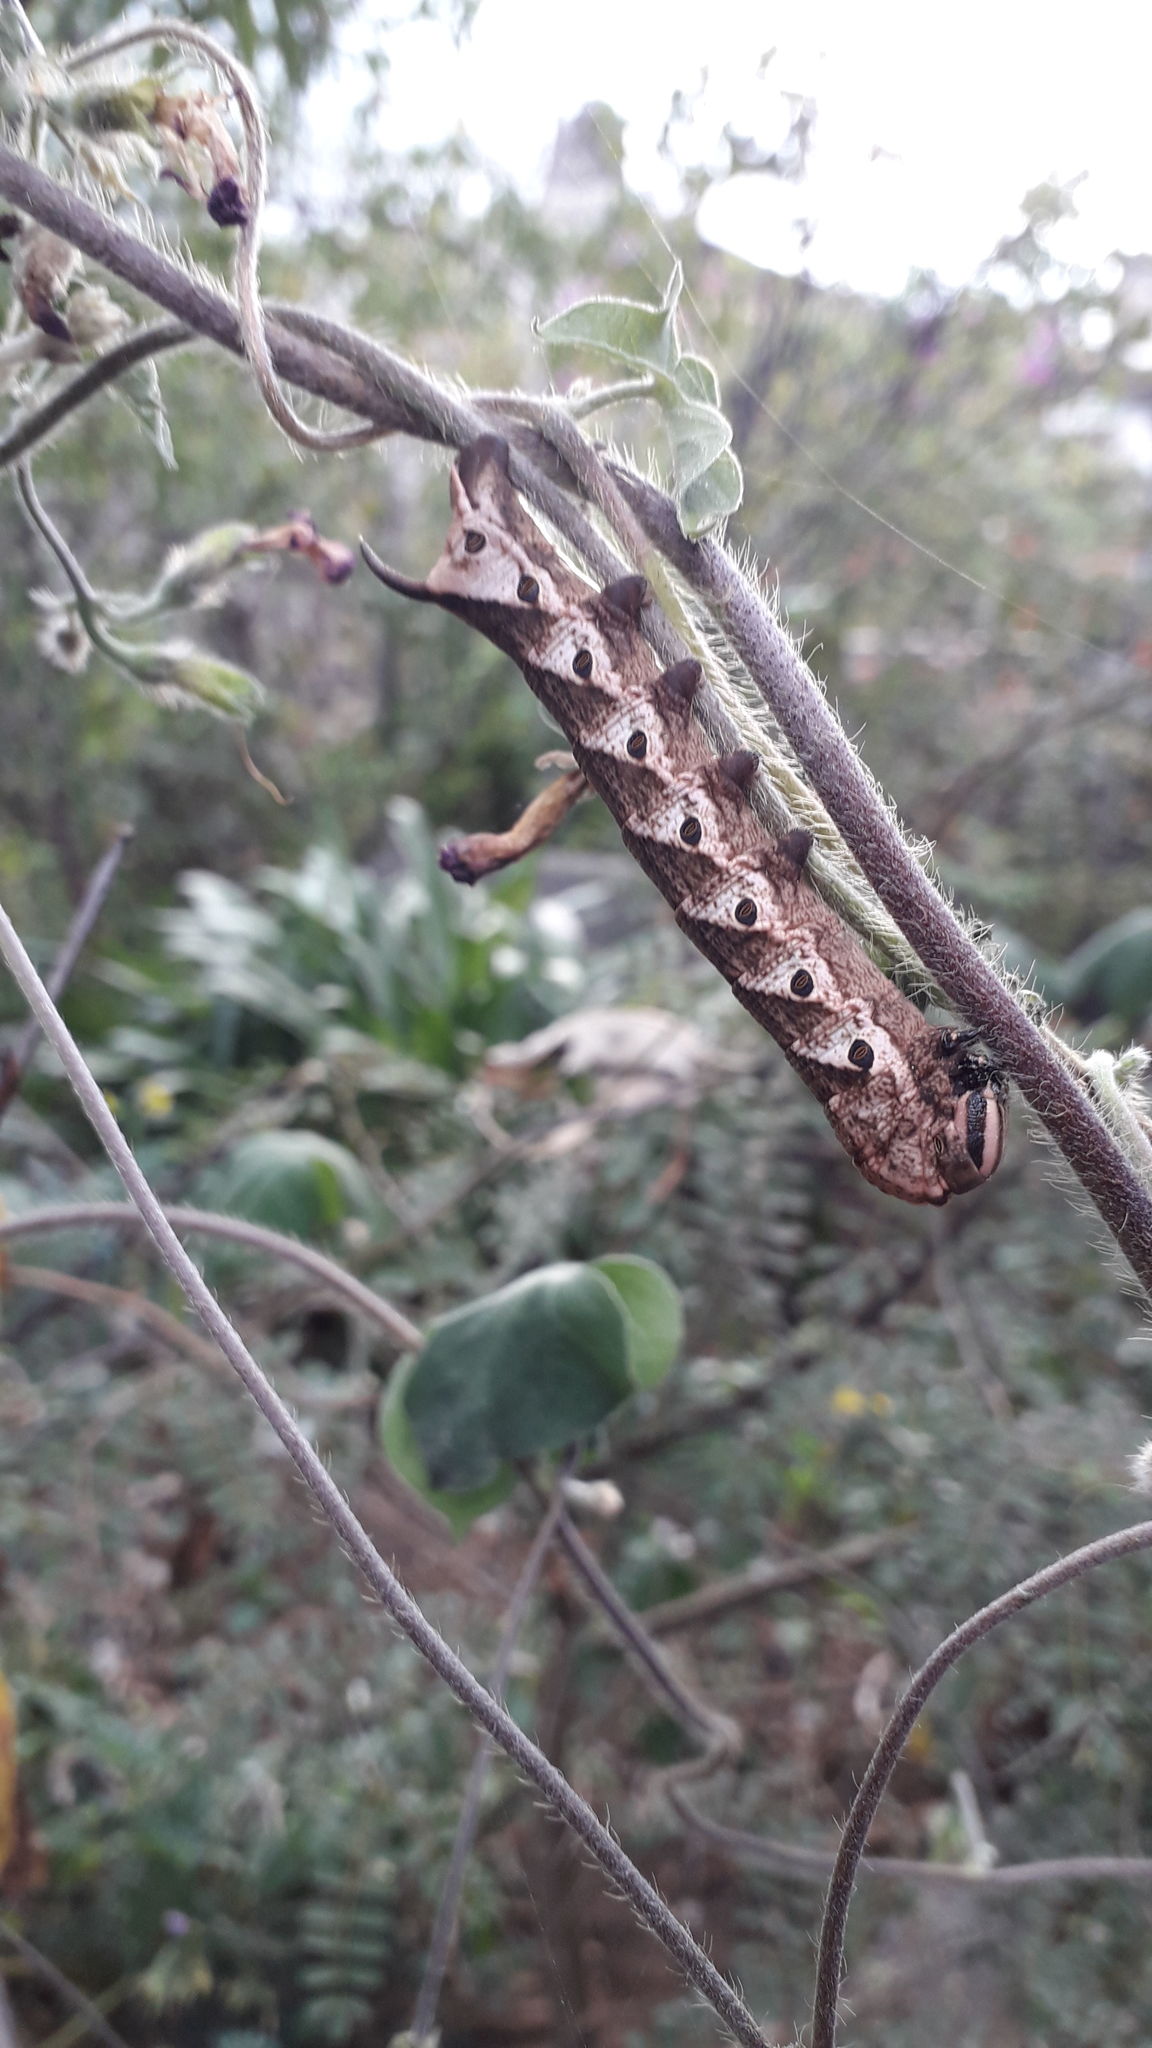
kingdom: Animalia
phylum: Arthropoda
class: Insecta
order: Lepidoptera
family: Sphingidae
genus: Agrius
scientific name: Agrius cingulata
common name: Pink-spotted hawkmoth
